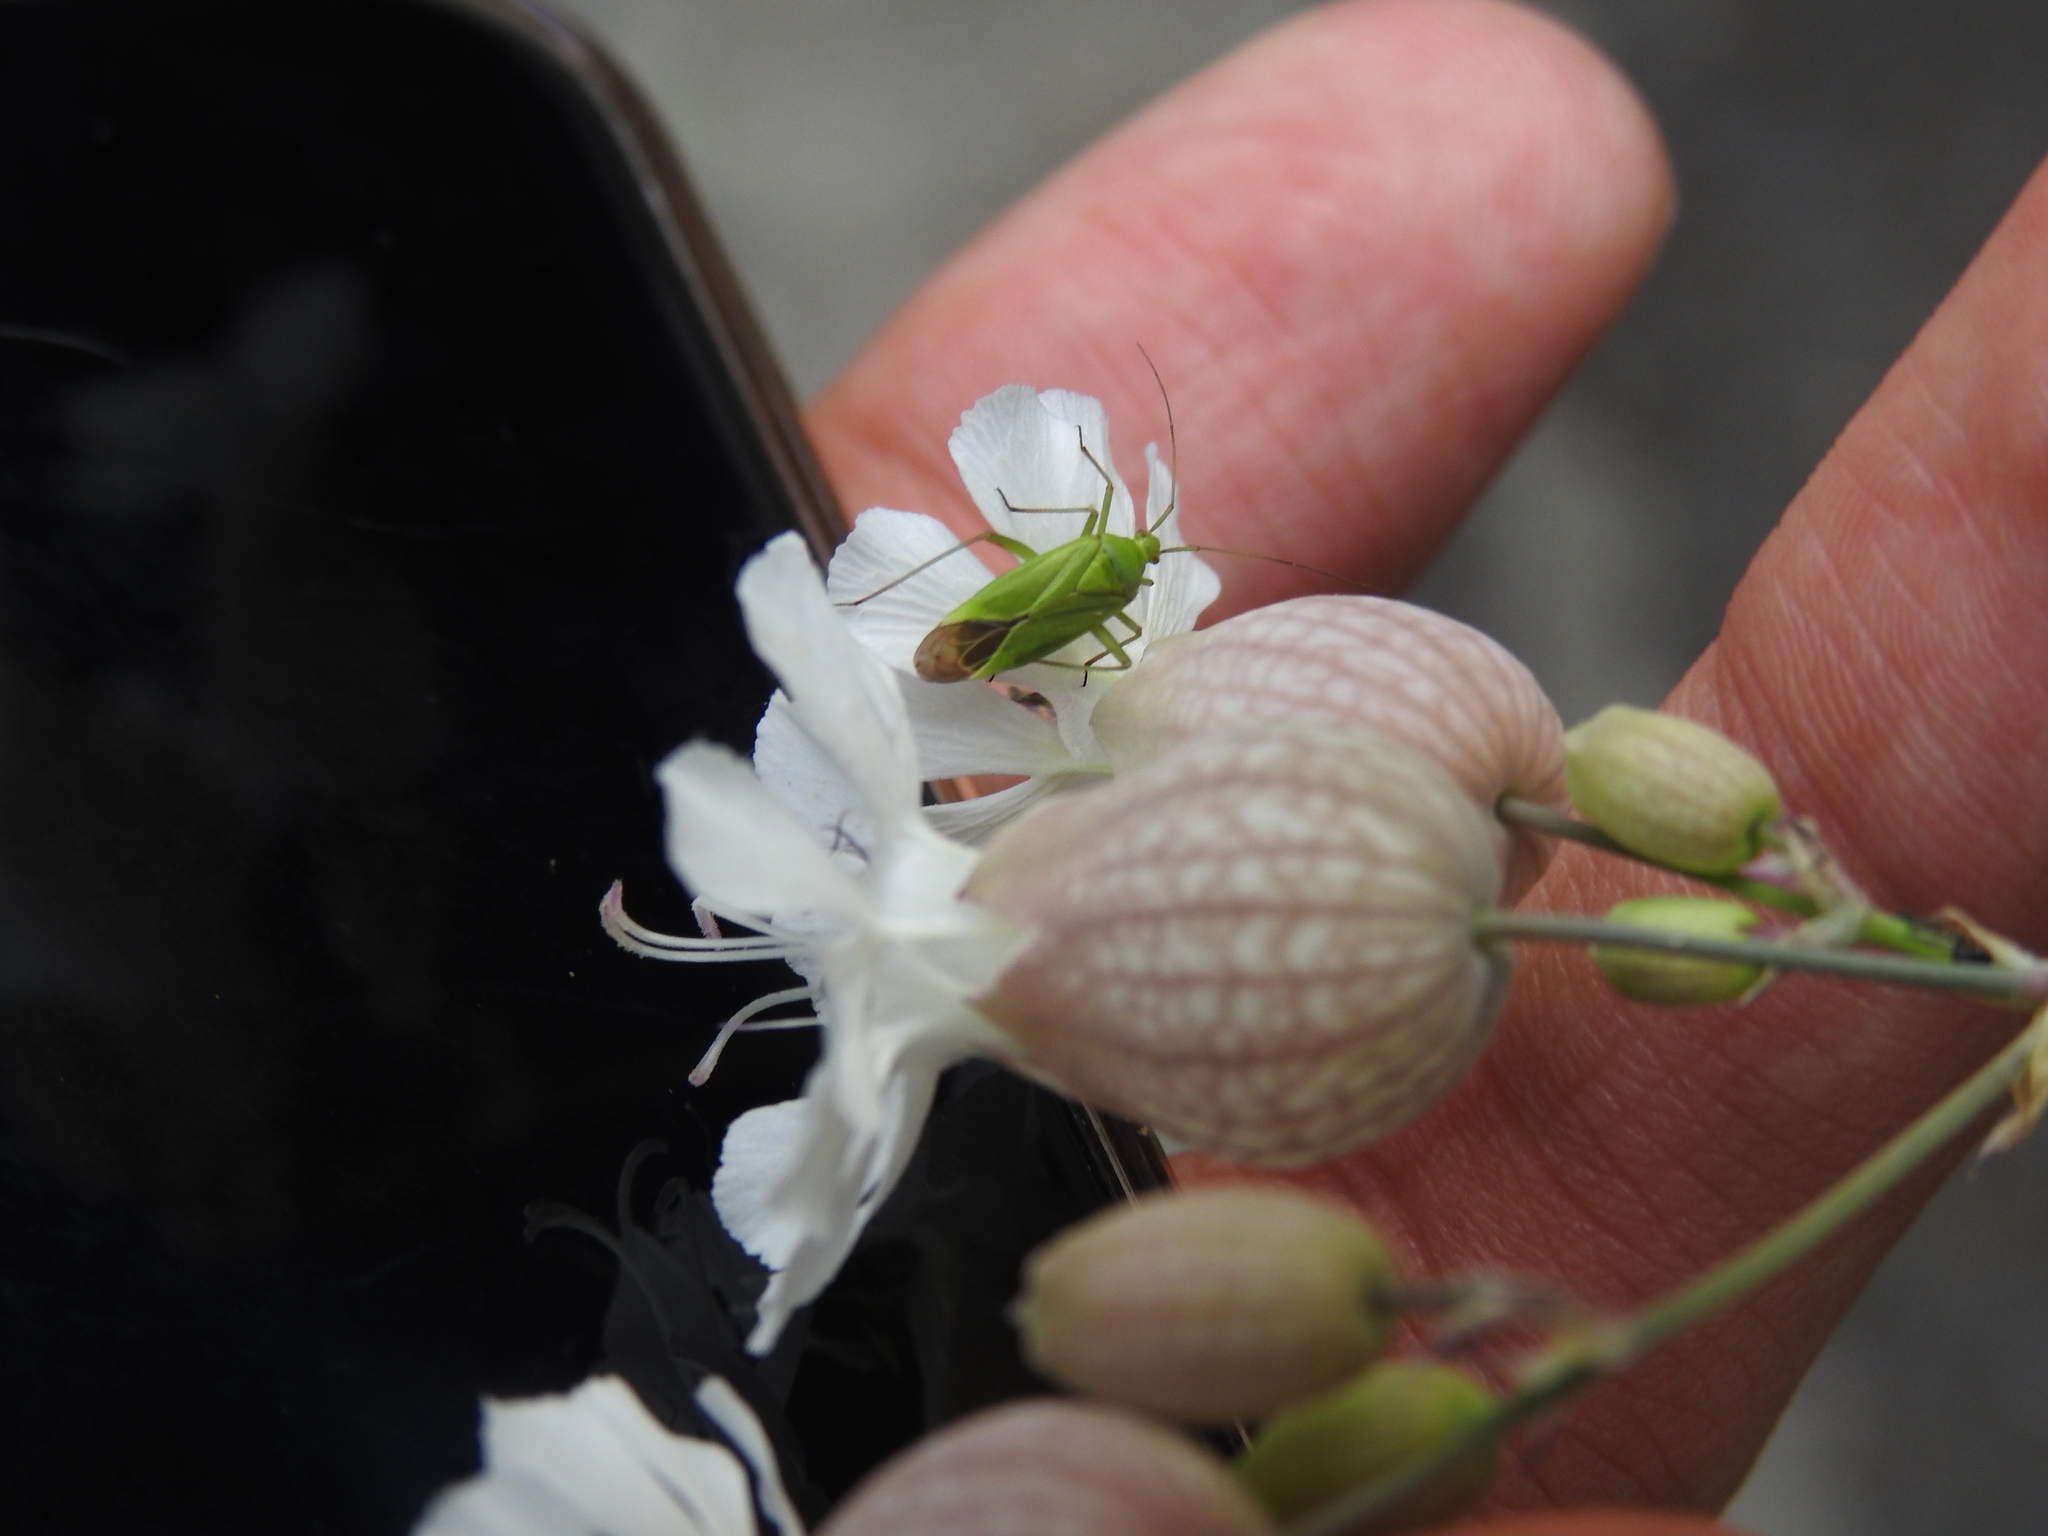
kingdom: Animalia
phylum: Arthropoda
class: Insecta
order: Hemiptera
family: Miridae
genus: Calocoris
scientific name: Calocoris affinis
